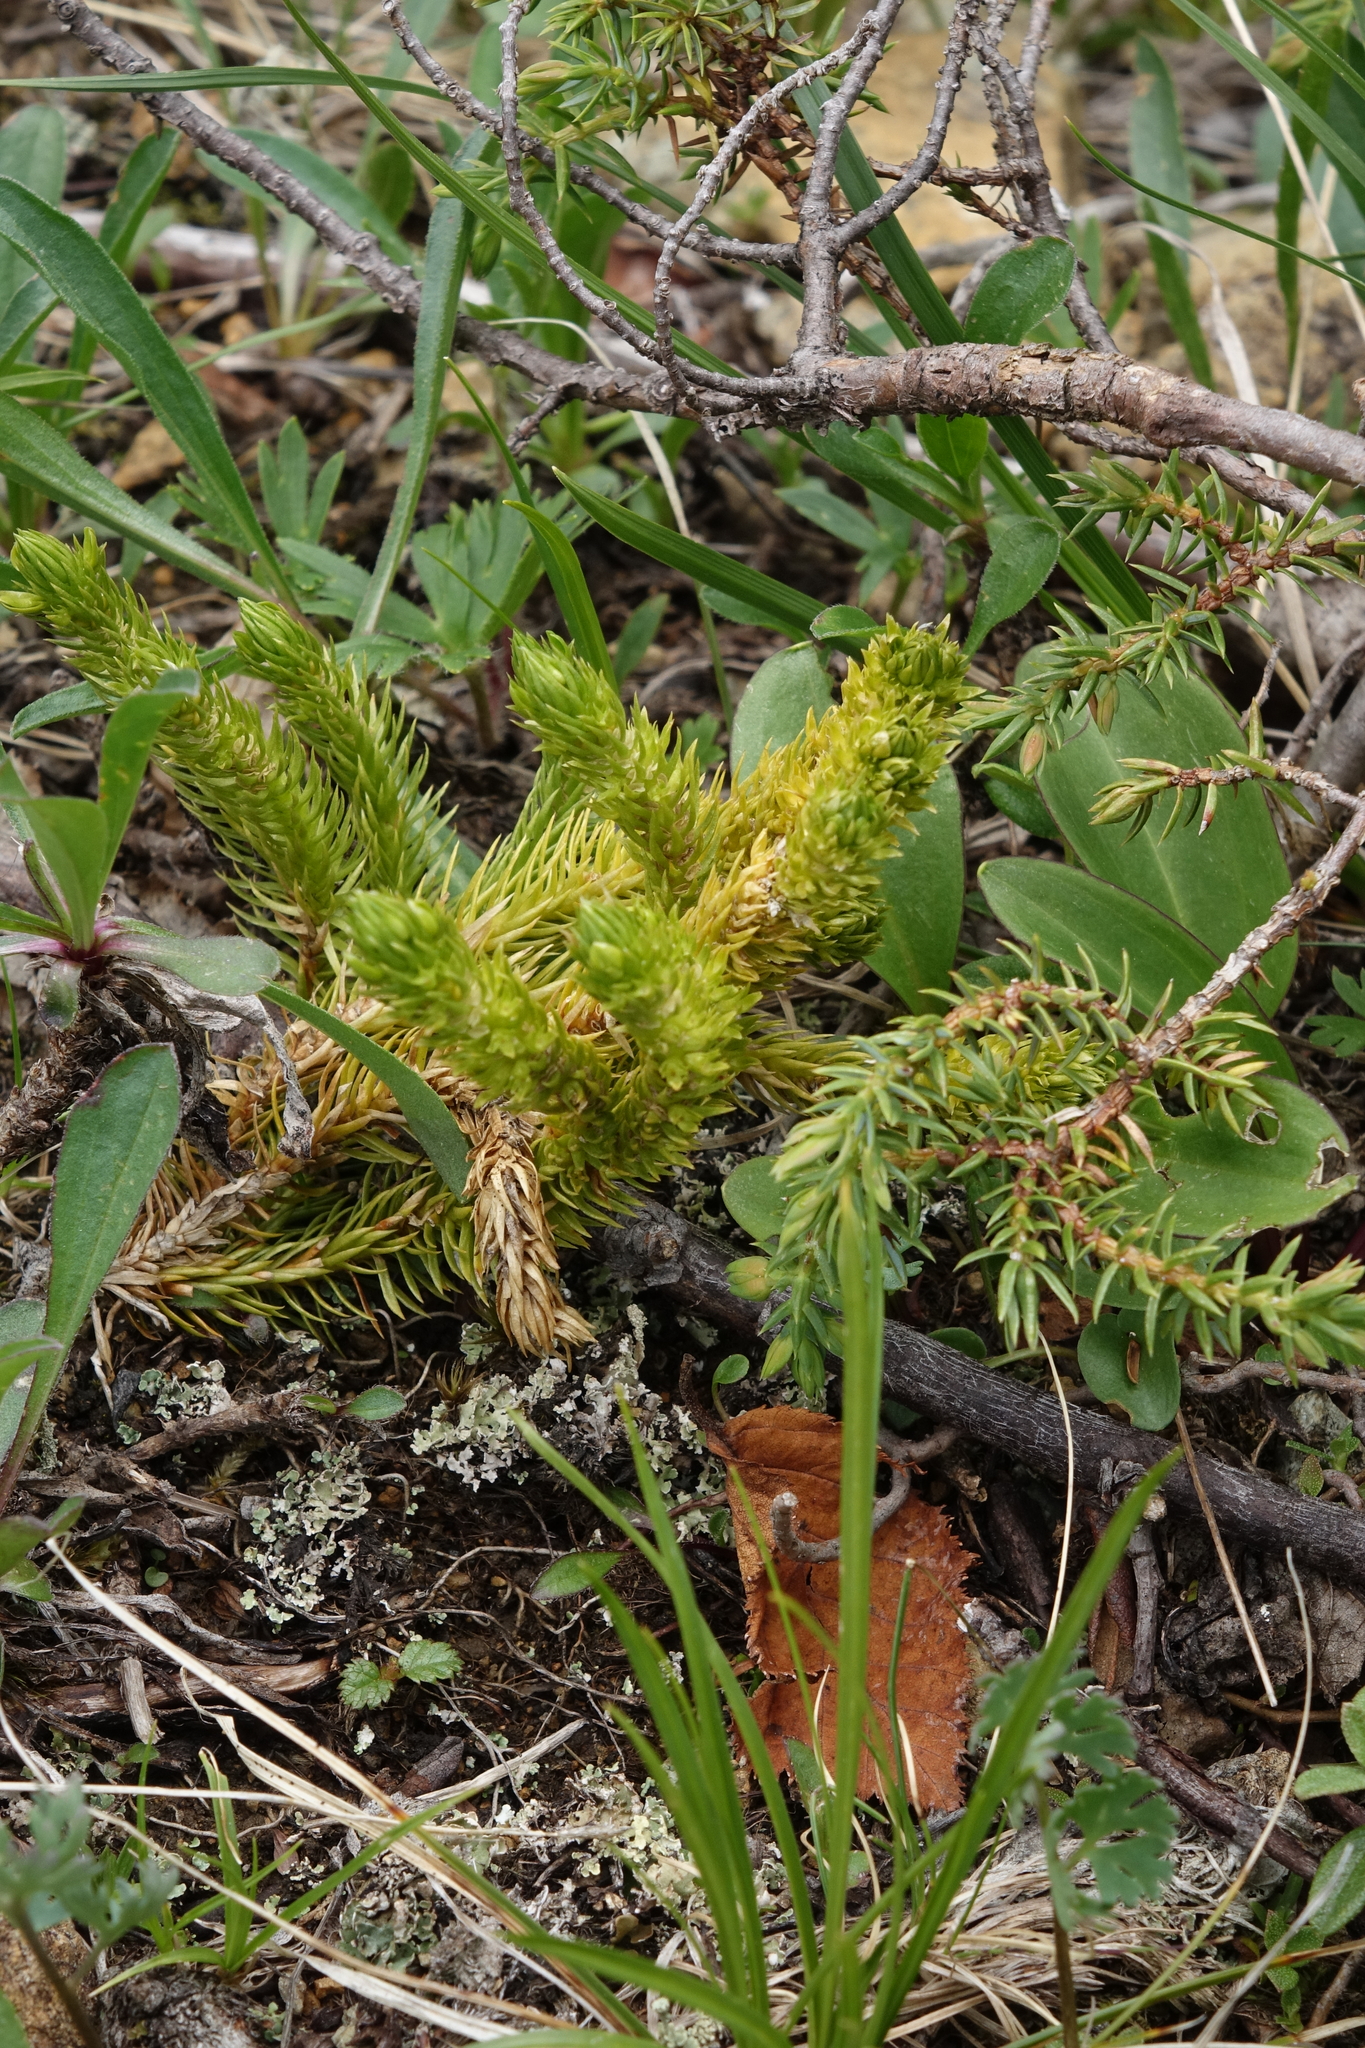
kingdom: Plantae
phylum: Tracheophyta
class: Lycopodiopsida
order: Lycopodiales
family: Lycopodiaceae
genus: Huperzia
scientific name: Huperzia selago
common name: Northern firmoss
